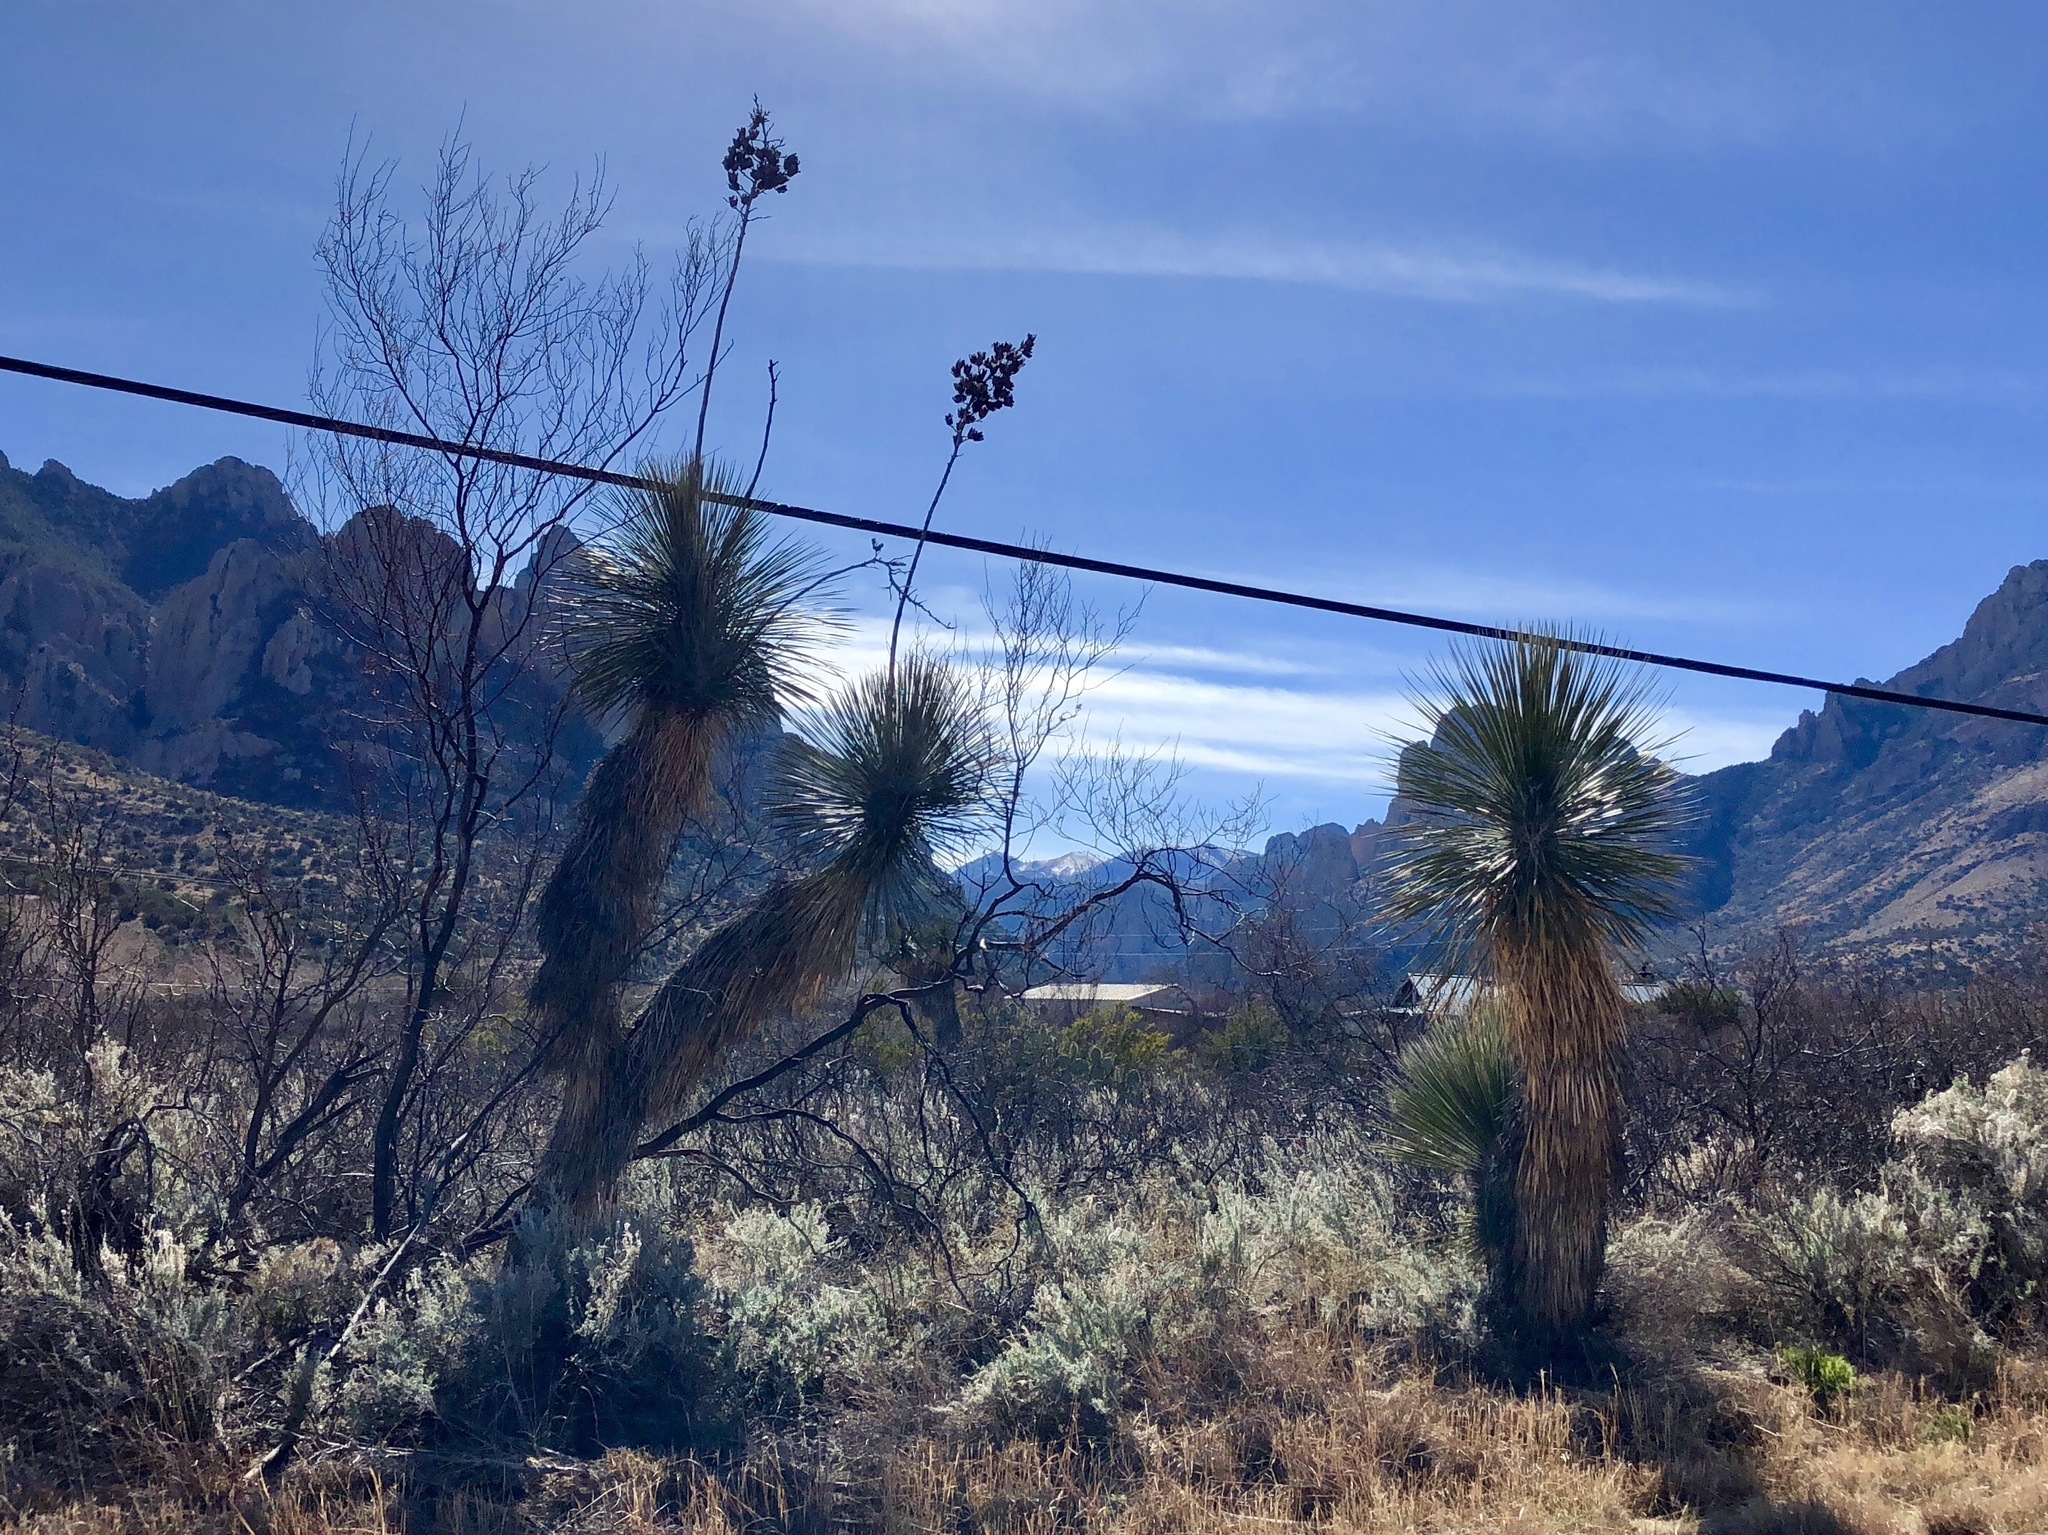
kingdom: Plantae
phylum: Tracheophyta
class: Liliopsida
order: Asparagales
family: Asparagaceae
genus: Yucca
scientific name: Yucca elata
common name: Palmella
